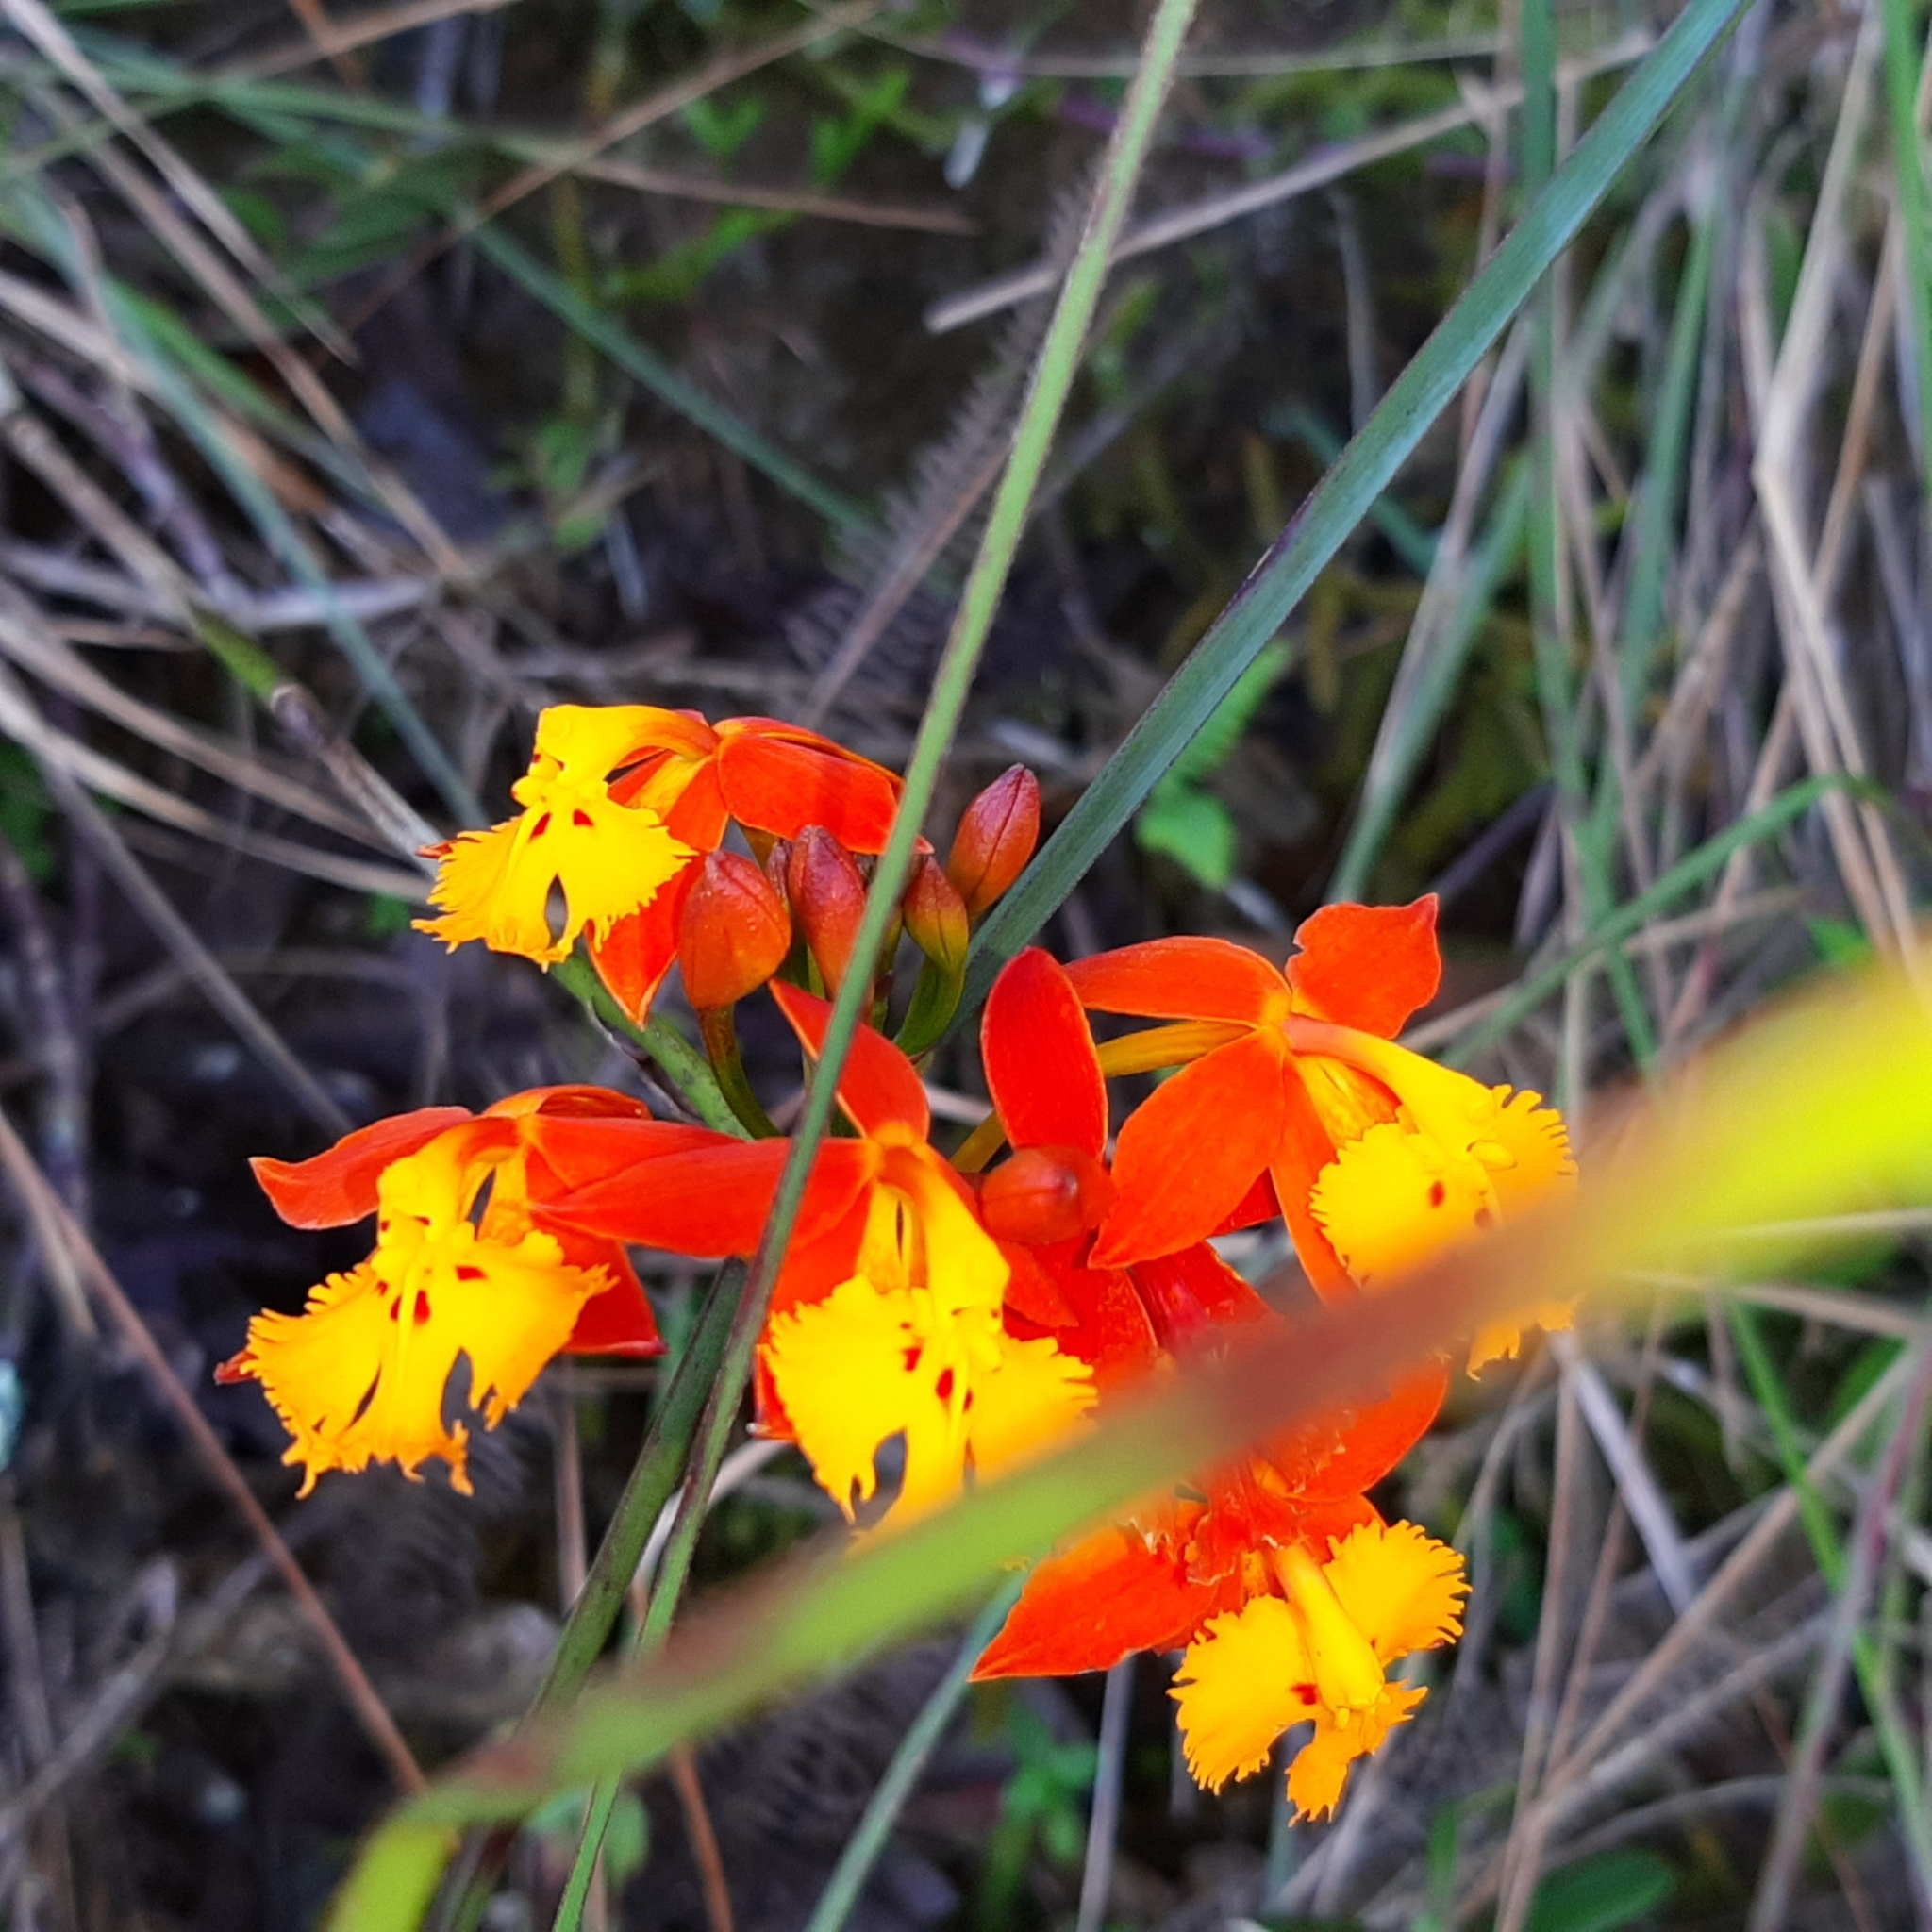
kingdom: Plantae
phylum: Tracheophyta
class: Liliopsida
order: Asparagales
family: Orchidaceae
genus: Epidendrum
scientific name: Epidendrum radicans
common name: Fire star orchid
